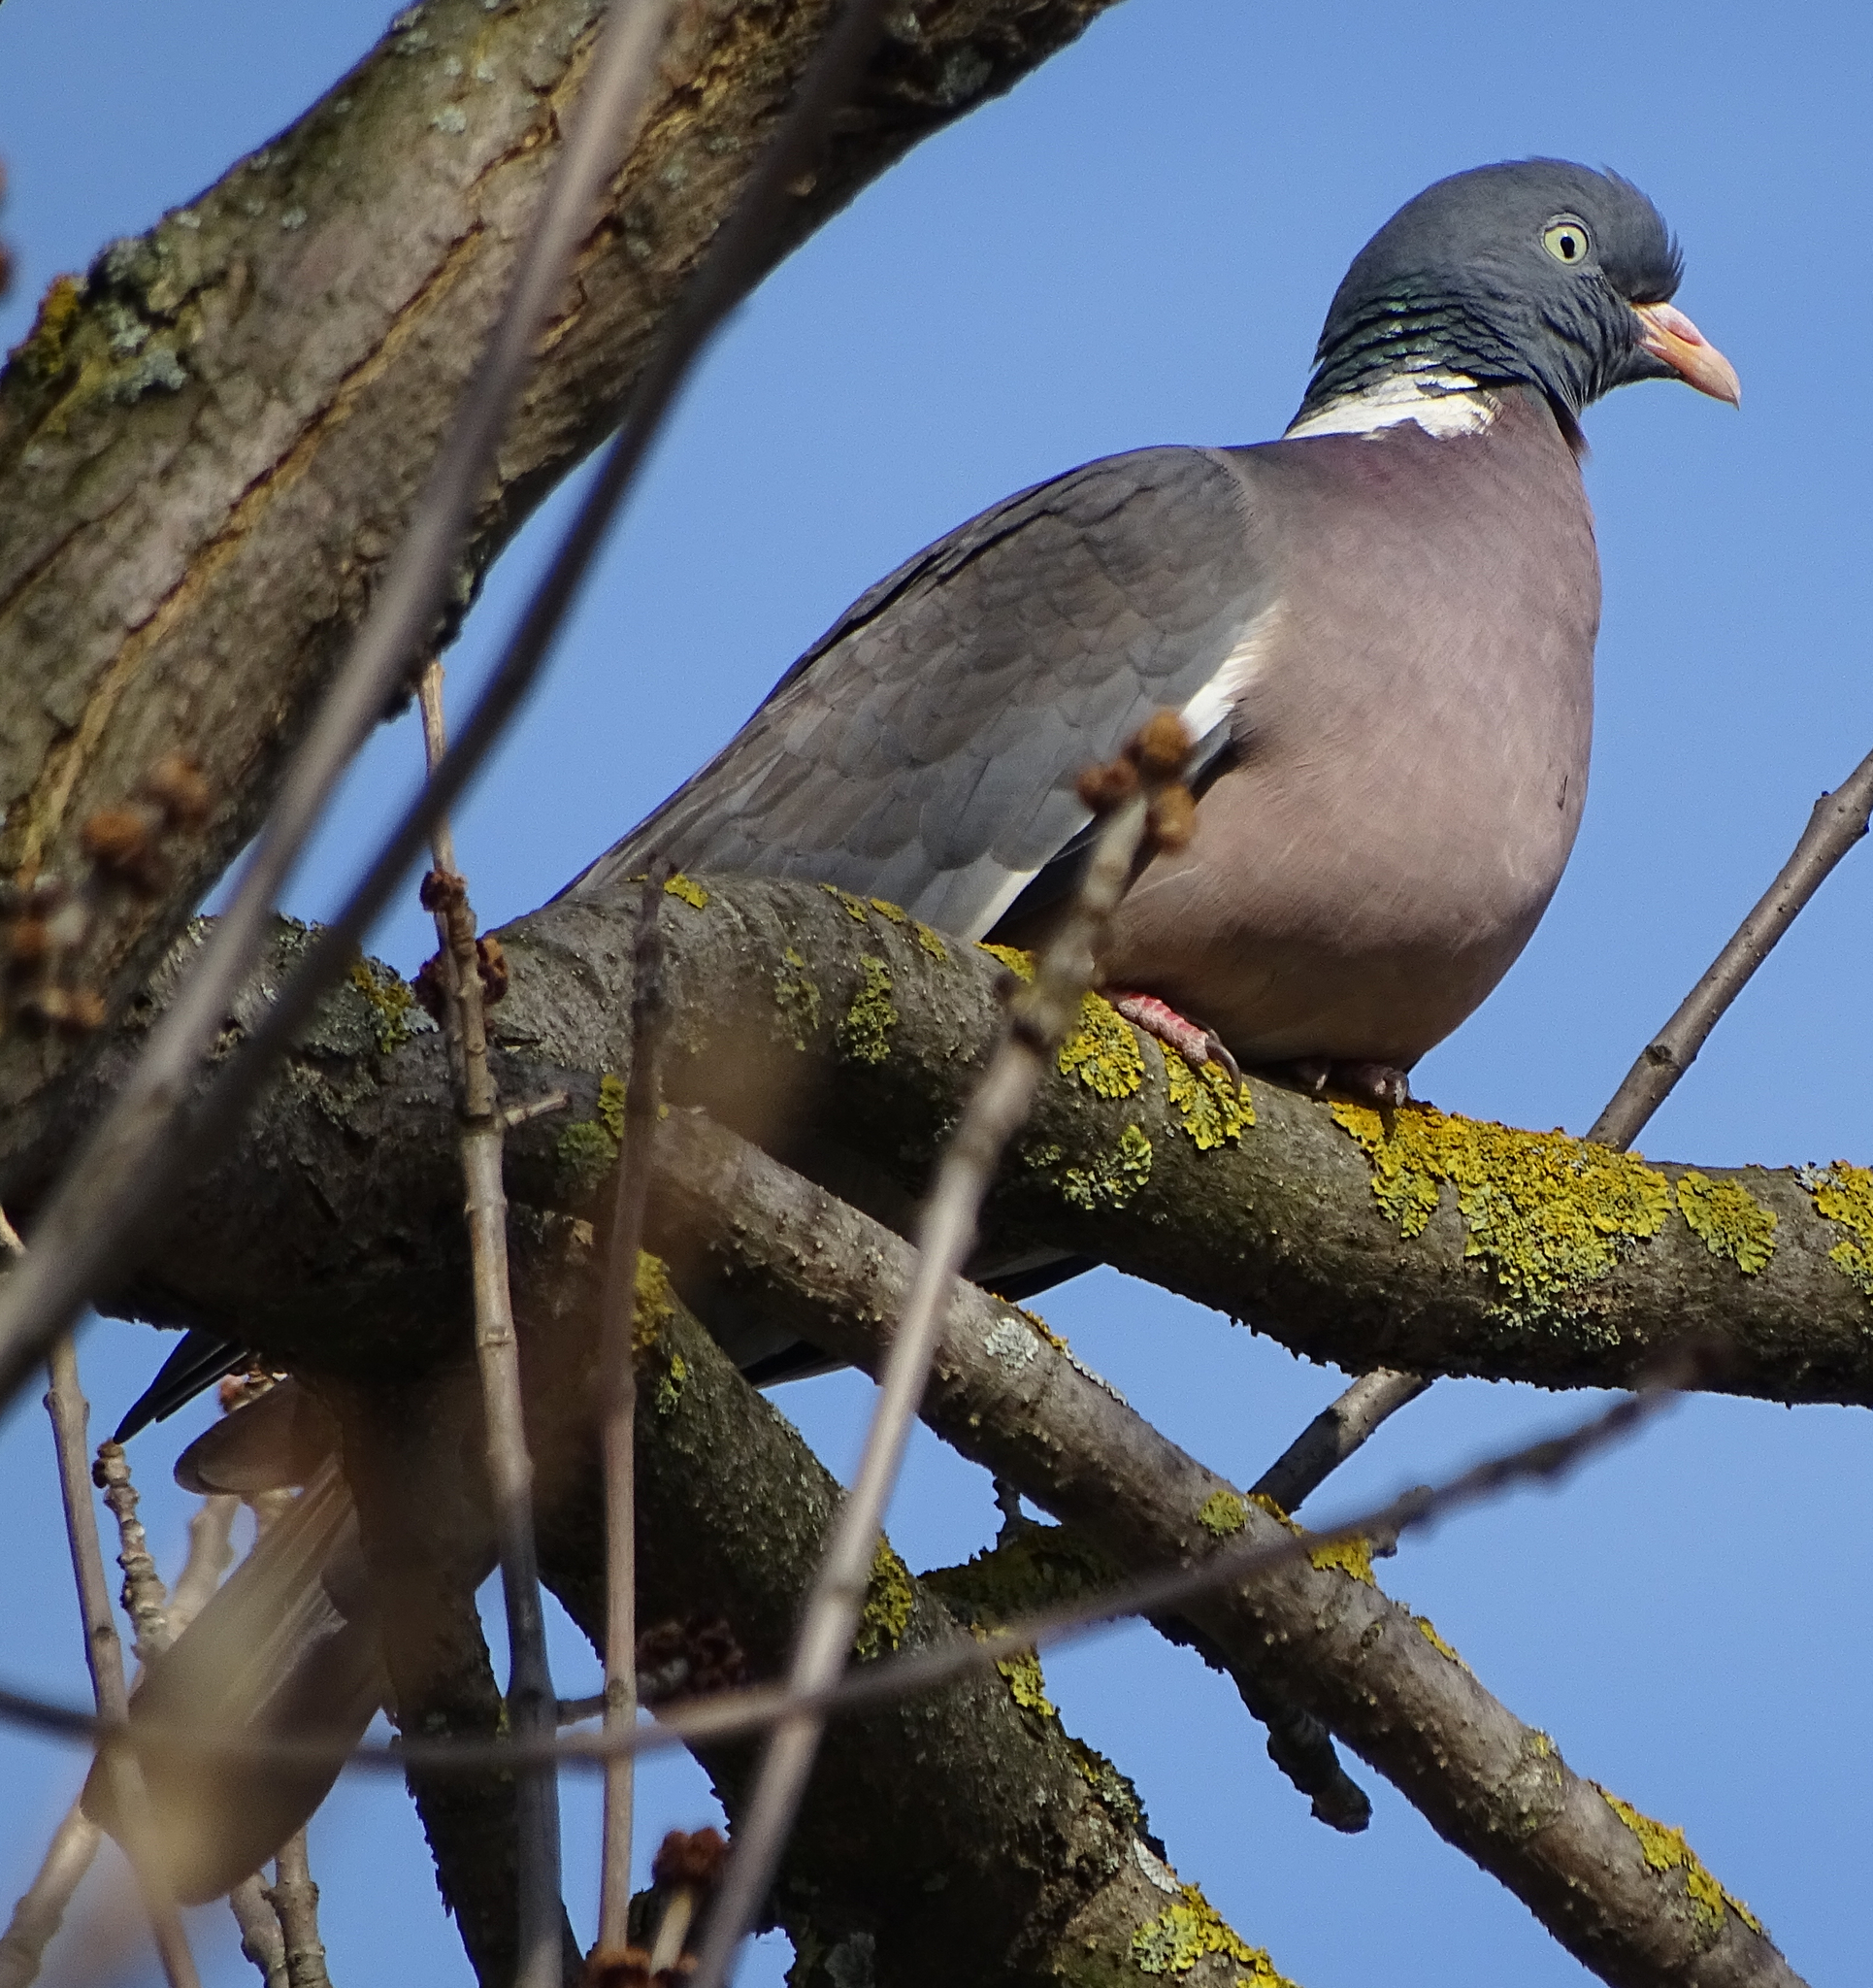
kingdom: Animalia
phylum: Chordata
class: Aves
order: Columbiformes
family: Columbidae
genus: Columba
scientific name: Columba palumbus
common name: Common wood pigeon
